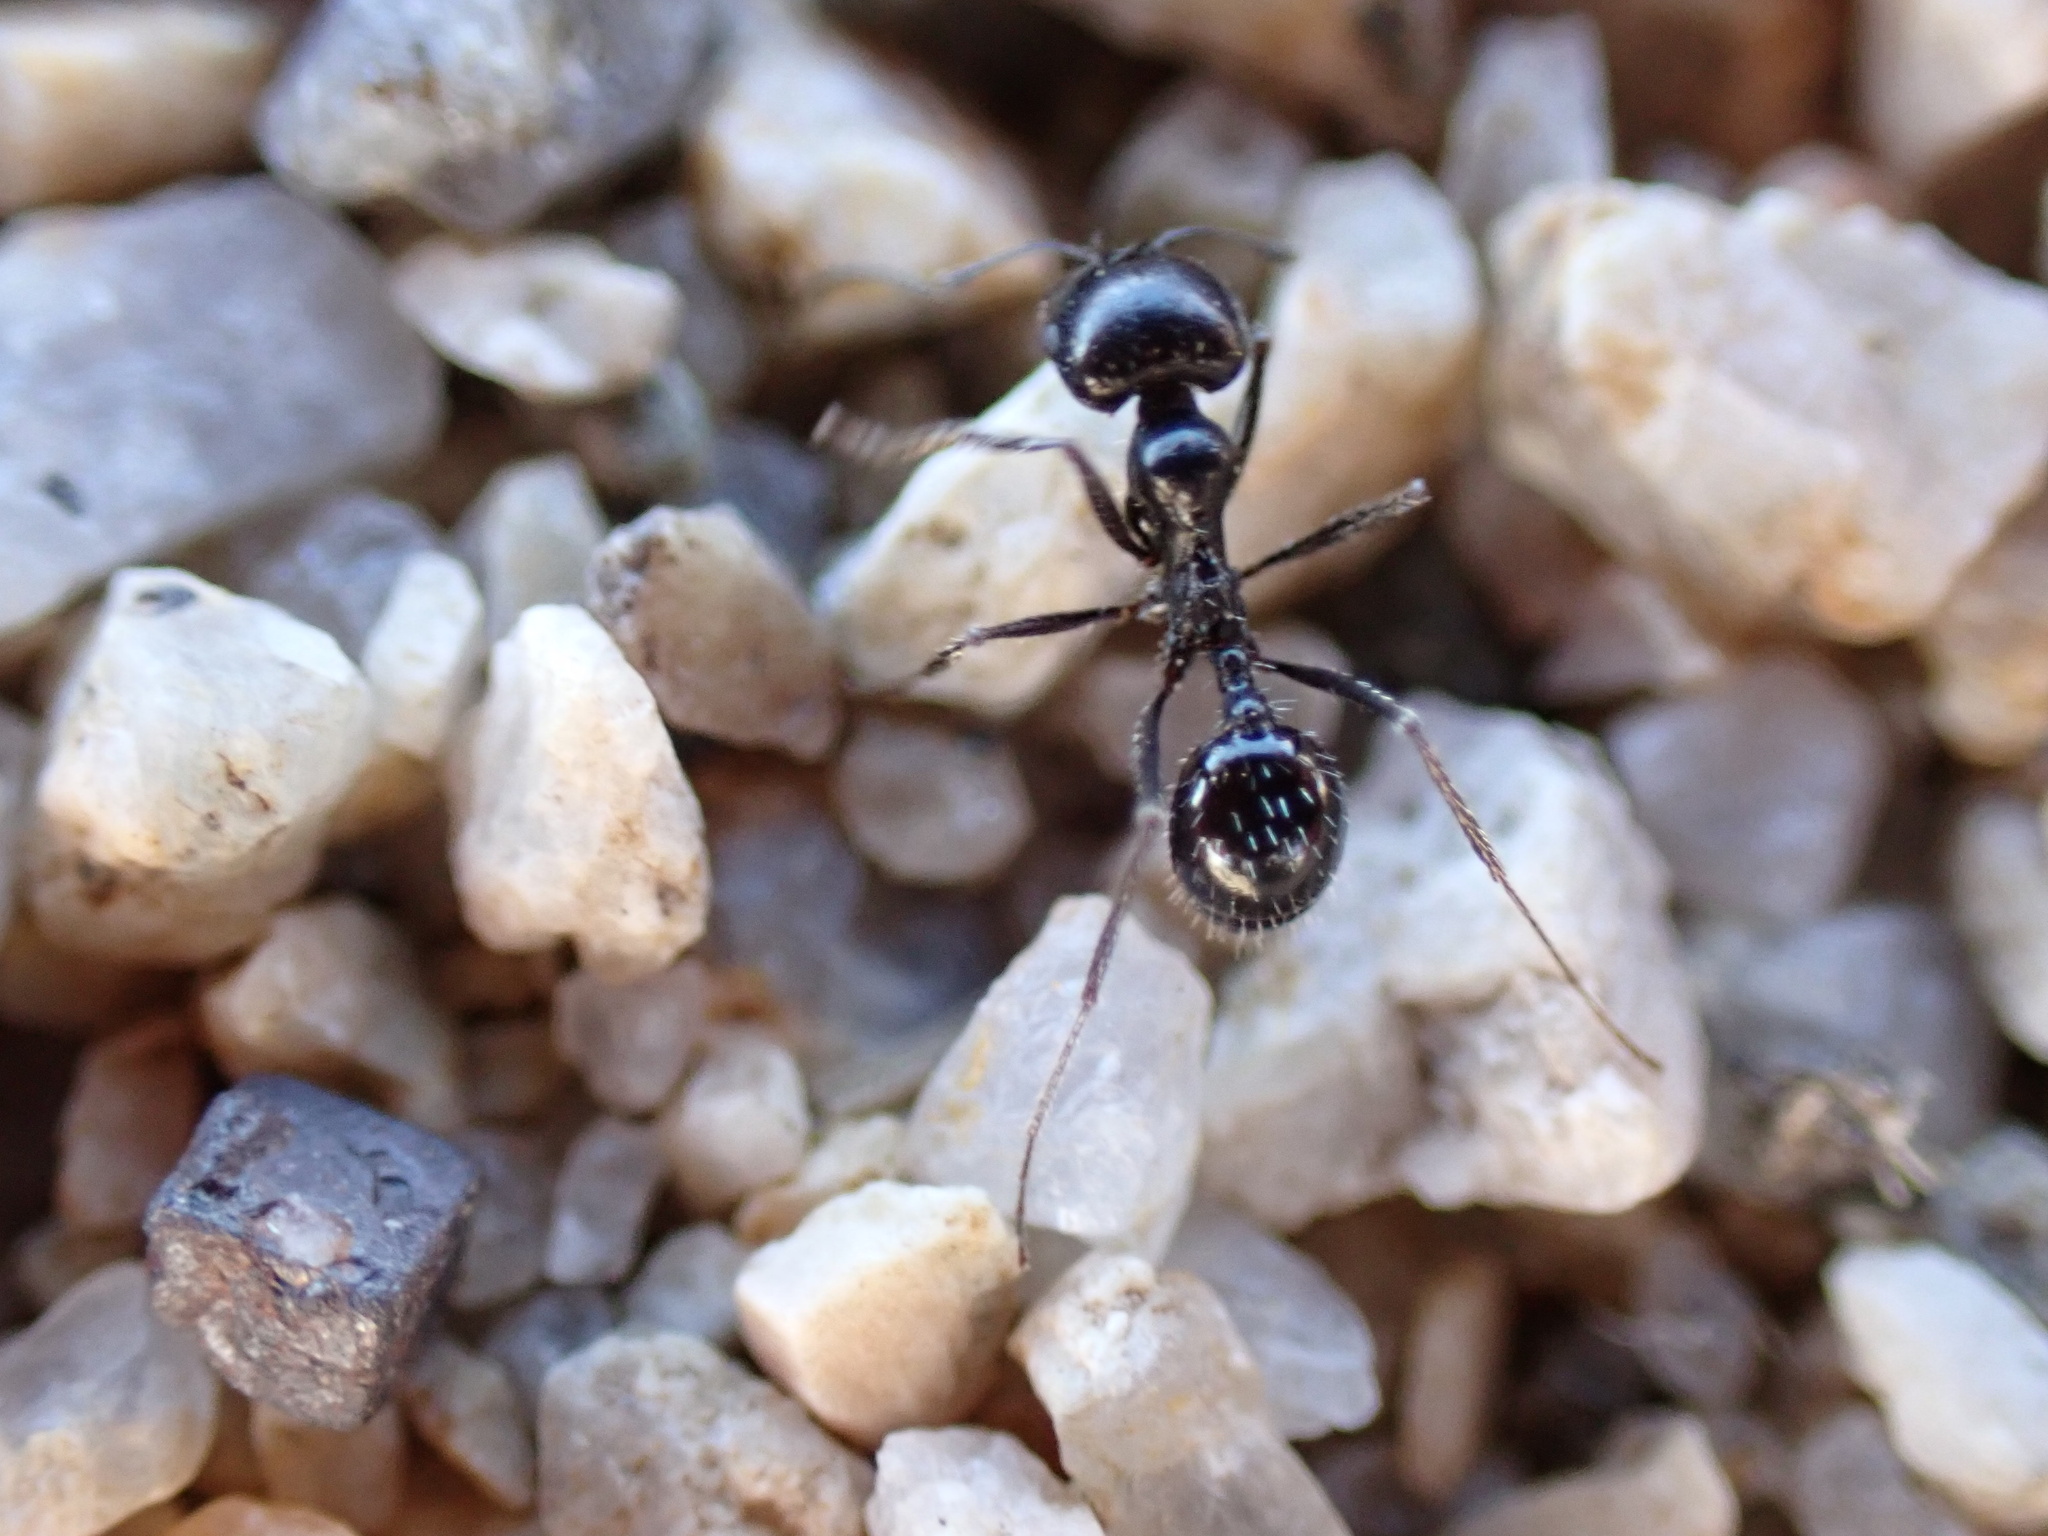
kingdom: Animalia
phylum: Arthropoda
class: Insecta
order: Hymenoptera
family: Formicidae
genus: Messor
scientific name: Messor pergandei
